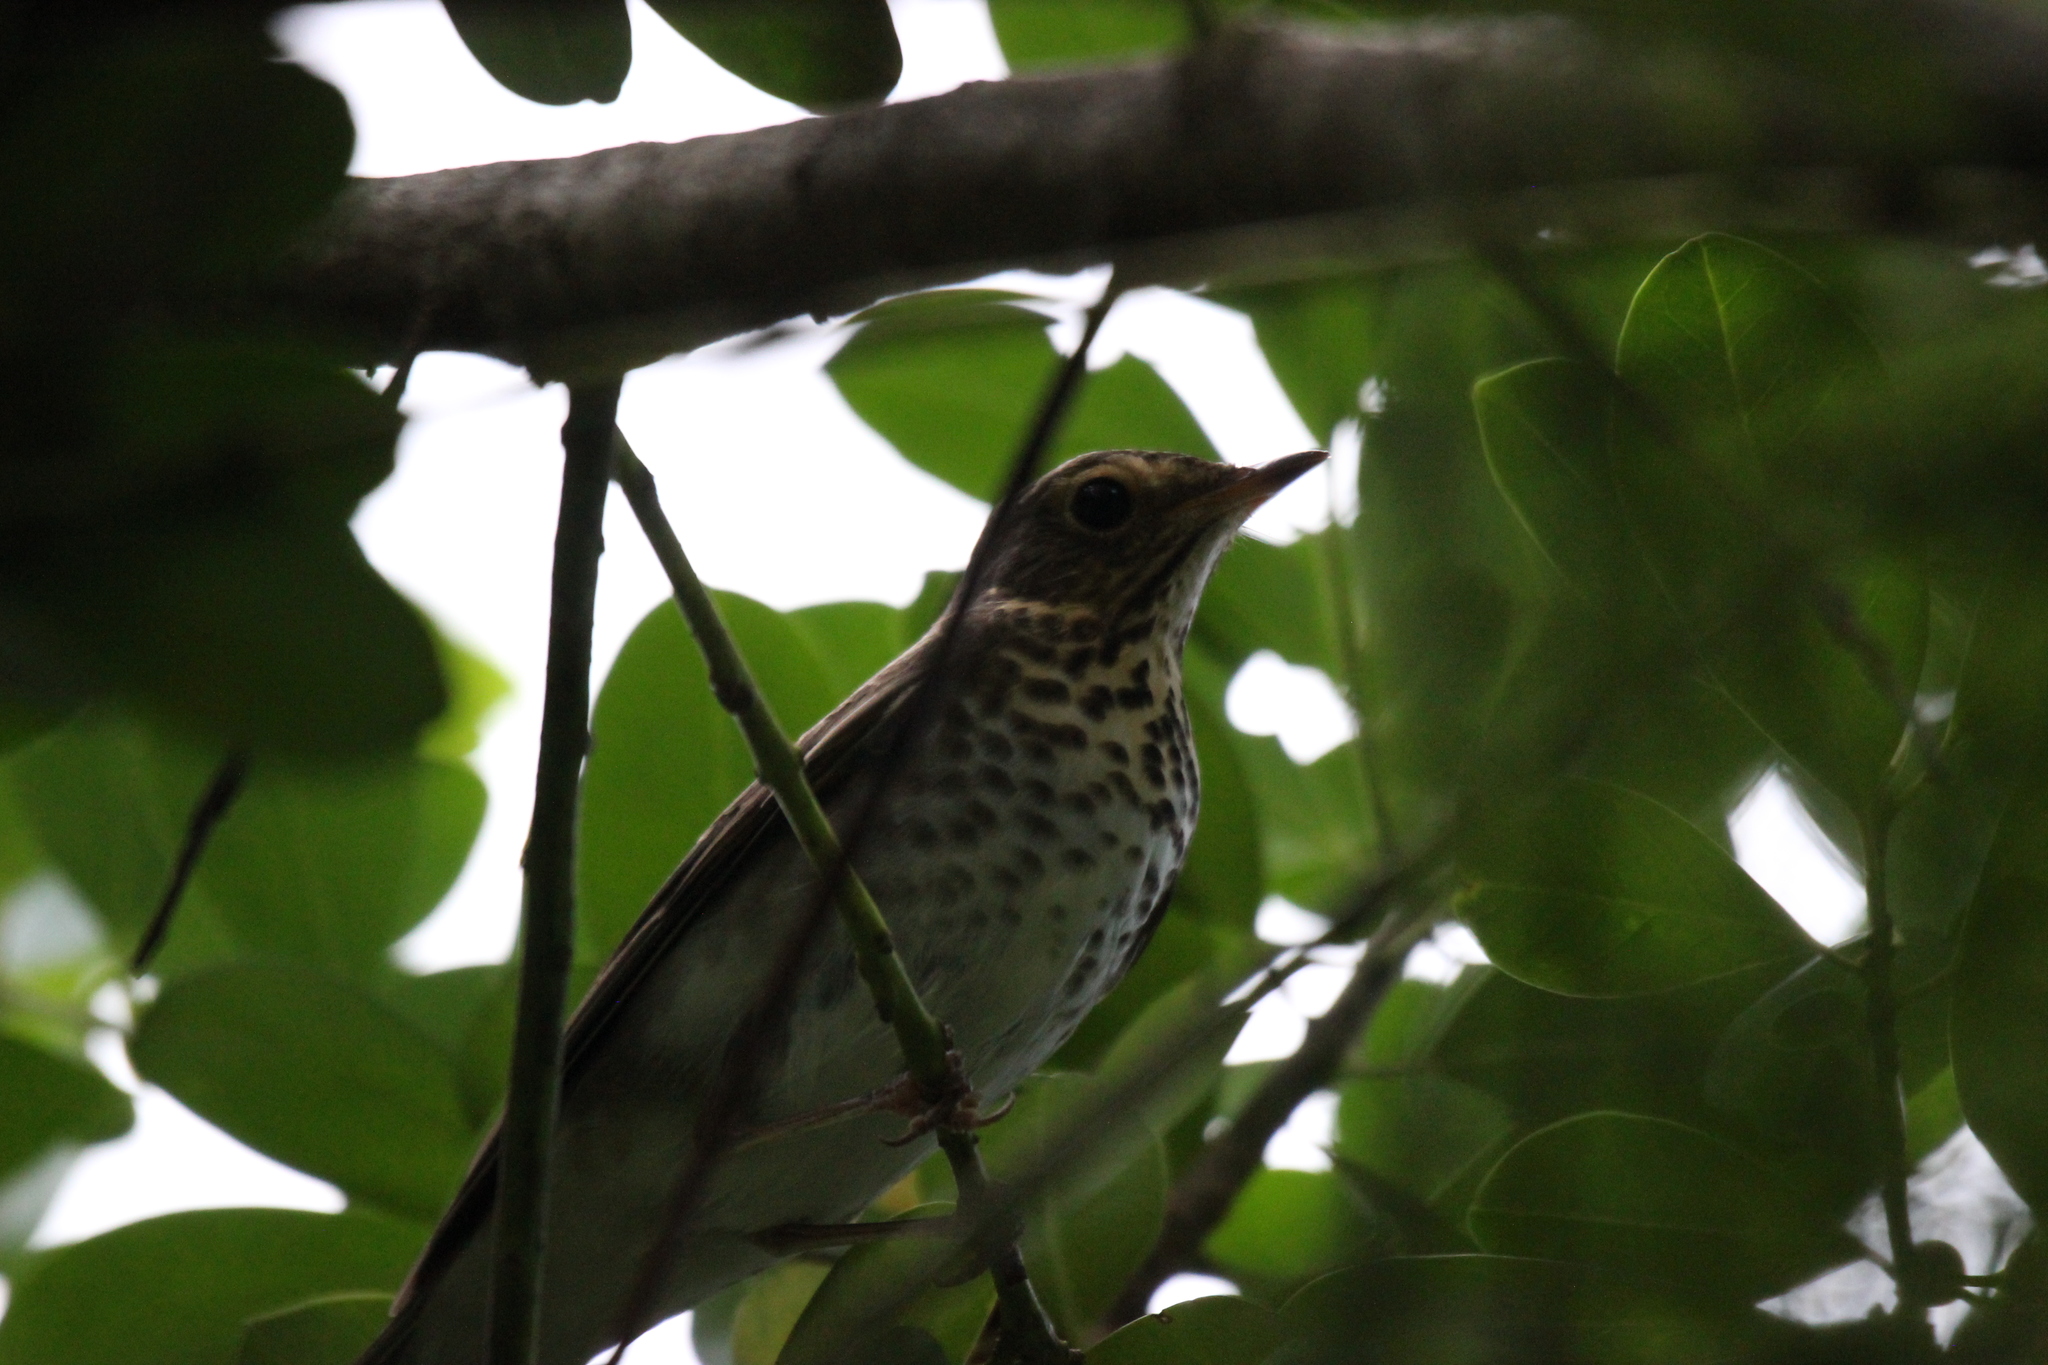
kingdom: Animalia
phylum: Chordata
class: Aves
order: Passeriformes
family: Turdidae
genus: Catharus
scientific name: Catharus ustulatus
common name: Swainson's thrush
